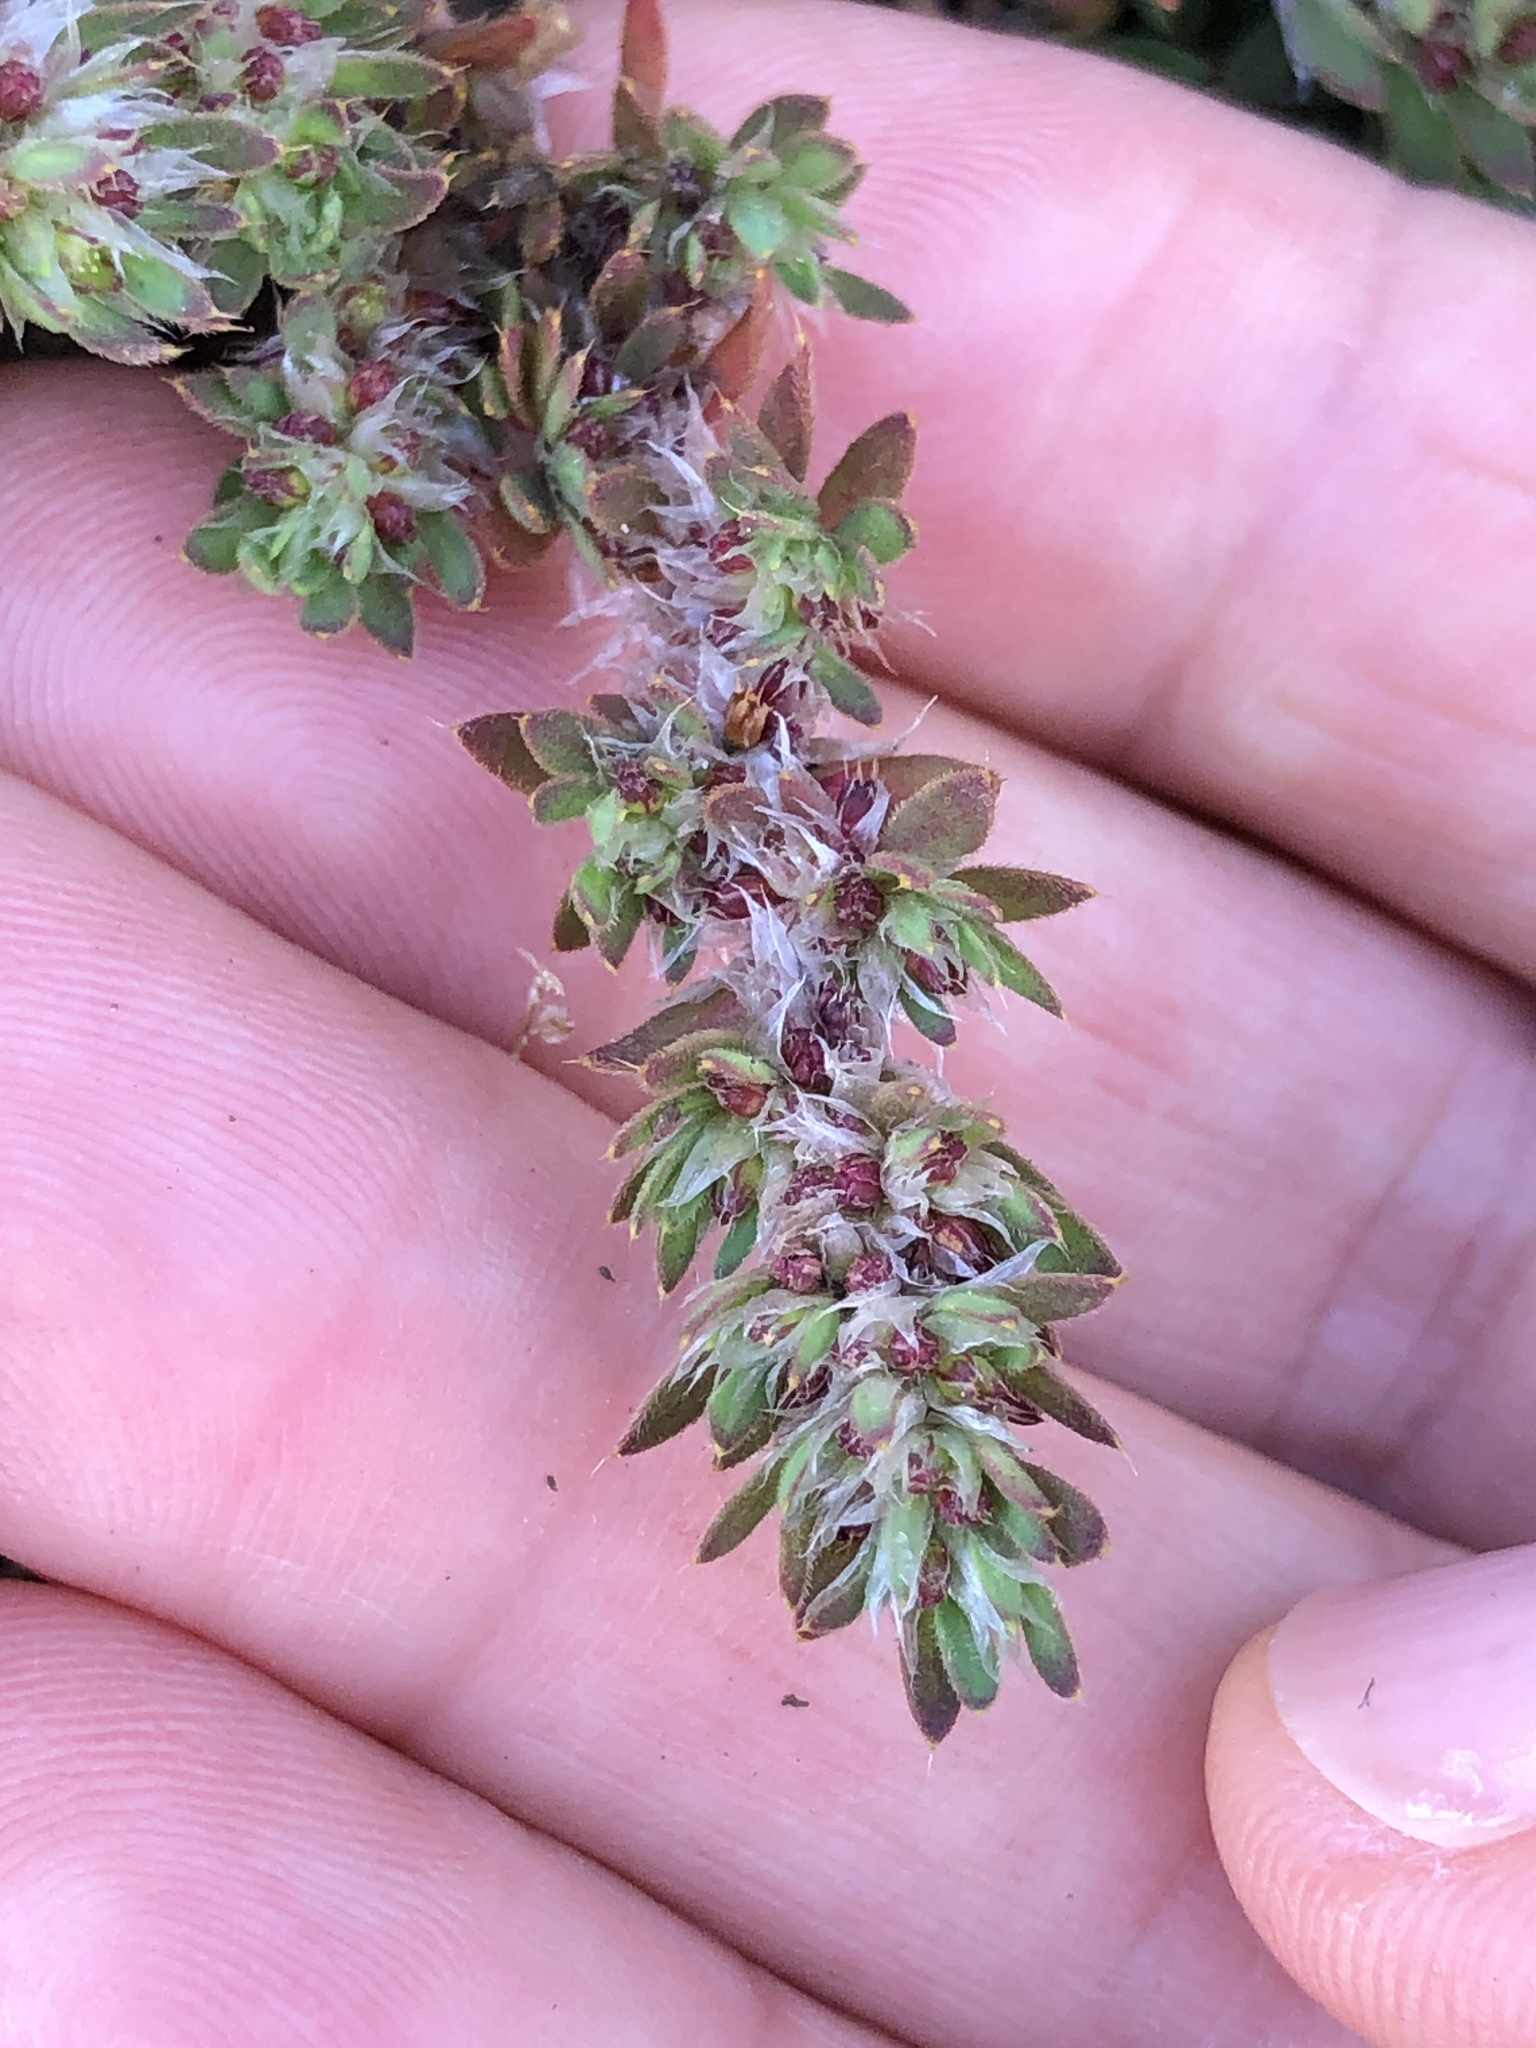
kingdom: Plantae
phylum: Tracheophyta
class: Magnoliopsida
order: Caryophyllales
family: Caryophyllaceae
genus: Paronychia
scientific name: Paronychia franciscana
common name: San francisco nailwort
